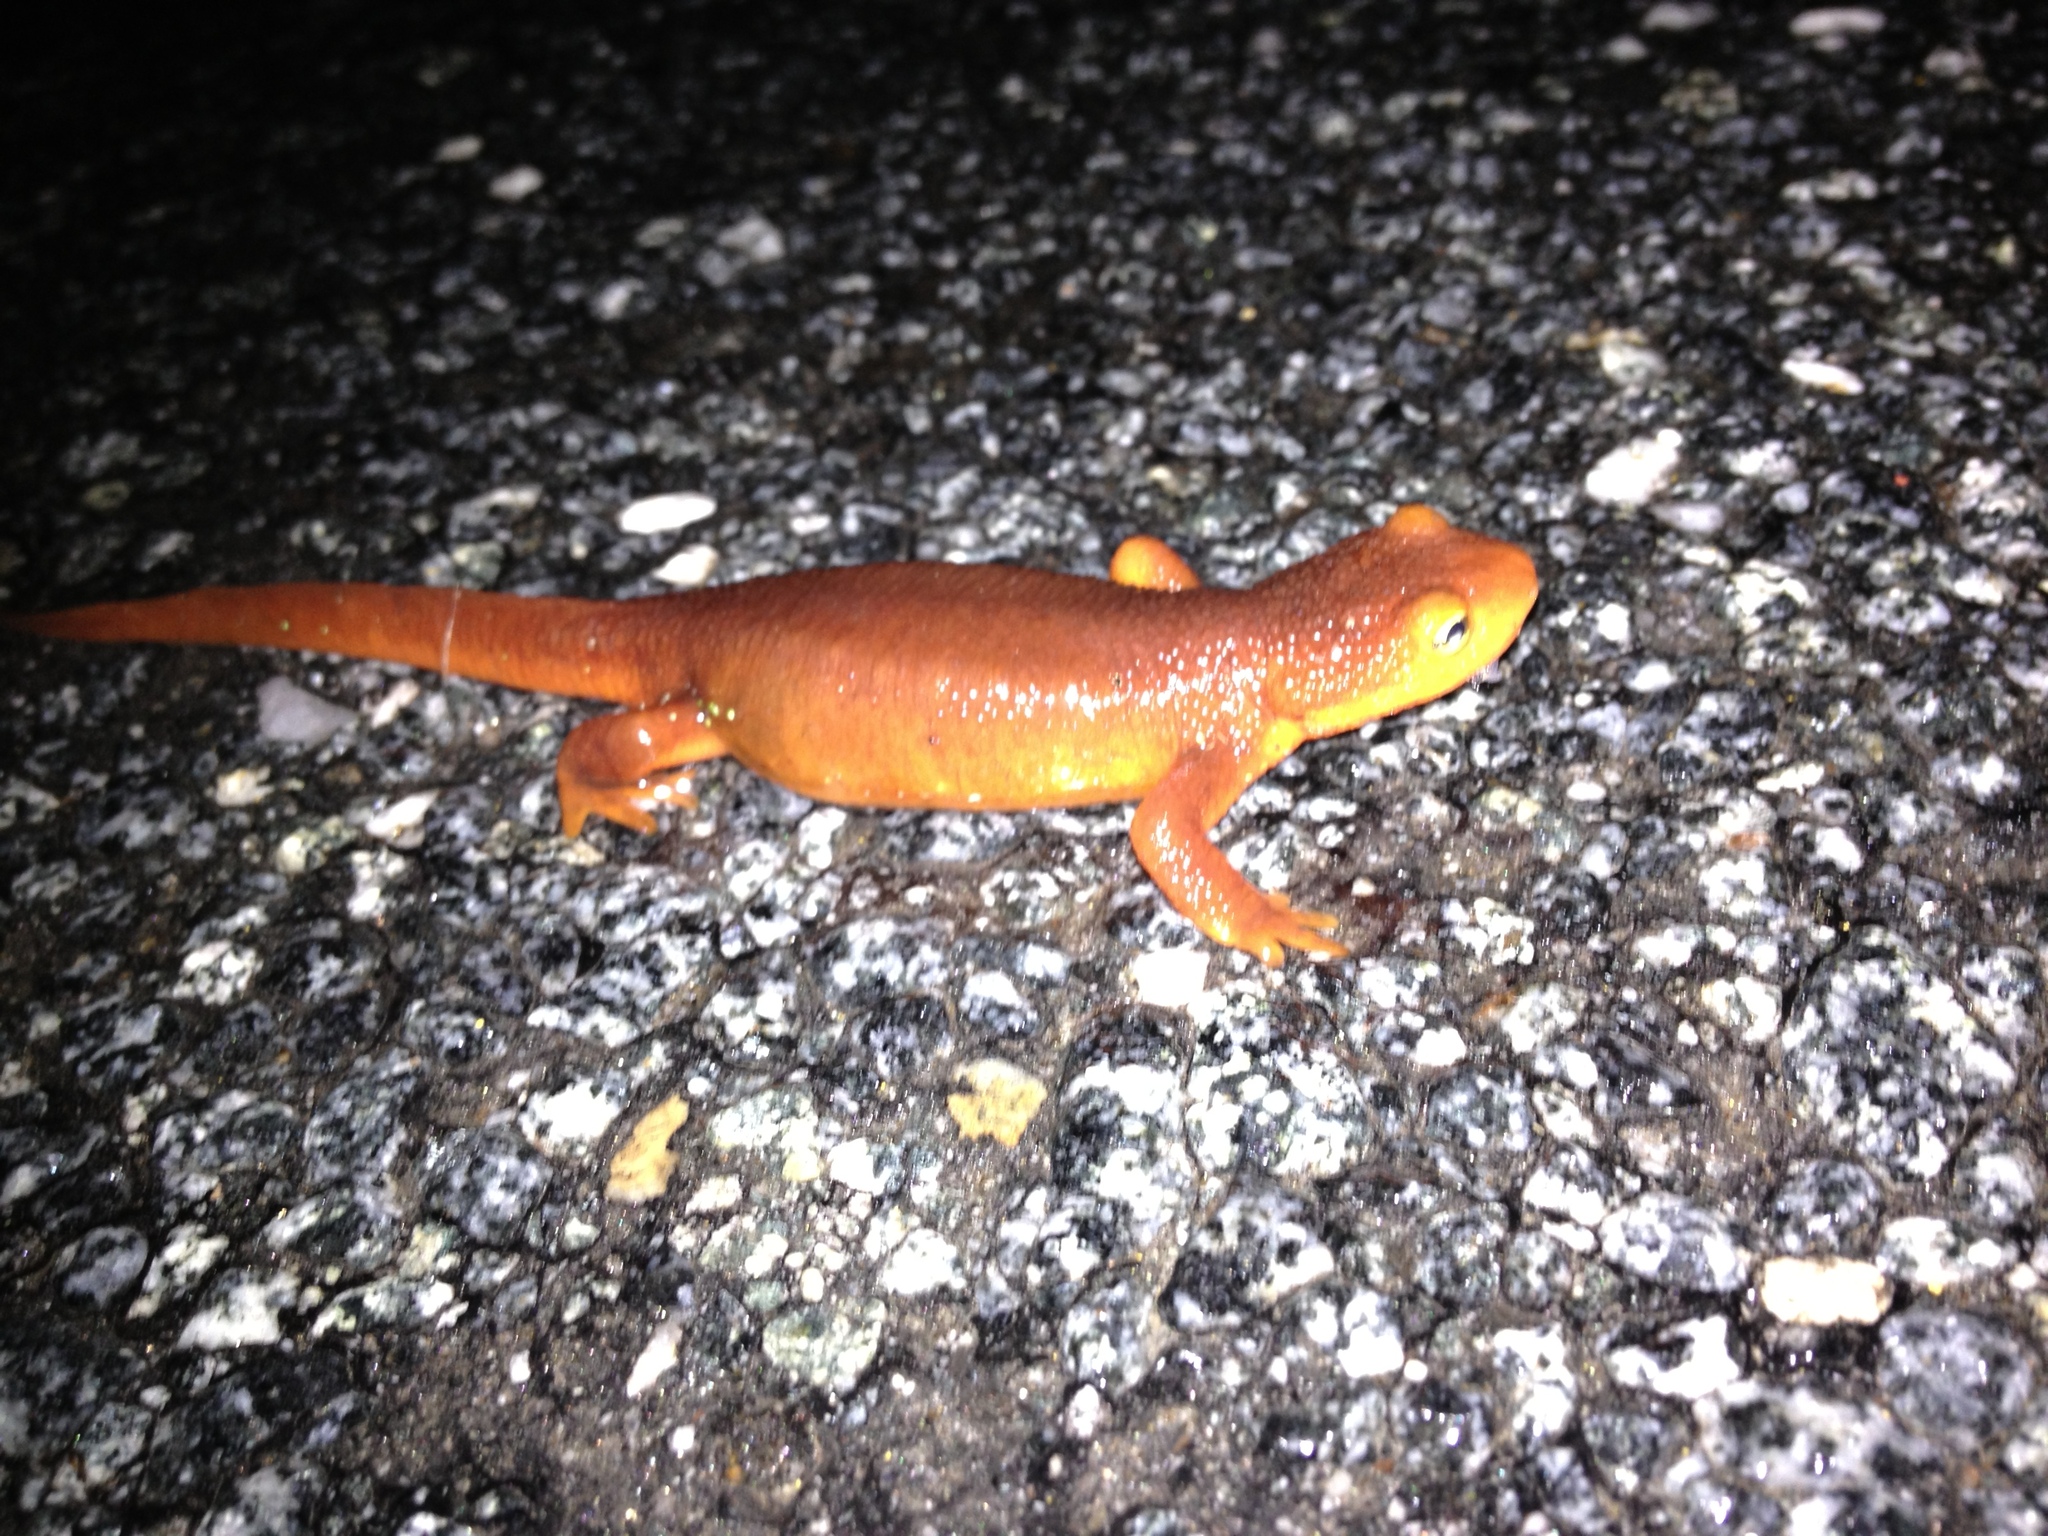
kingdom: Animalia
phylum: Chordata
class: Amphibia
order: Caudata
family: Salamandridae
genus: Taricha
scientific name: Taricha torosa
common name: California newt
